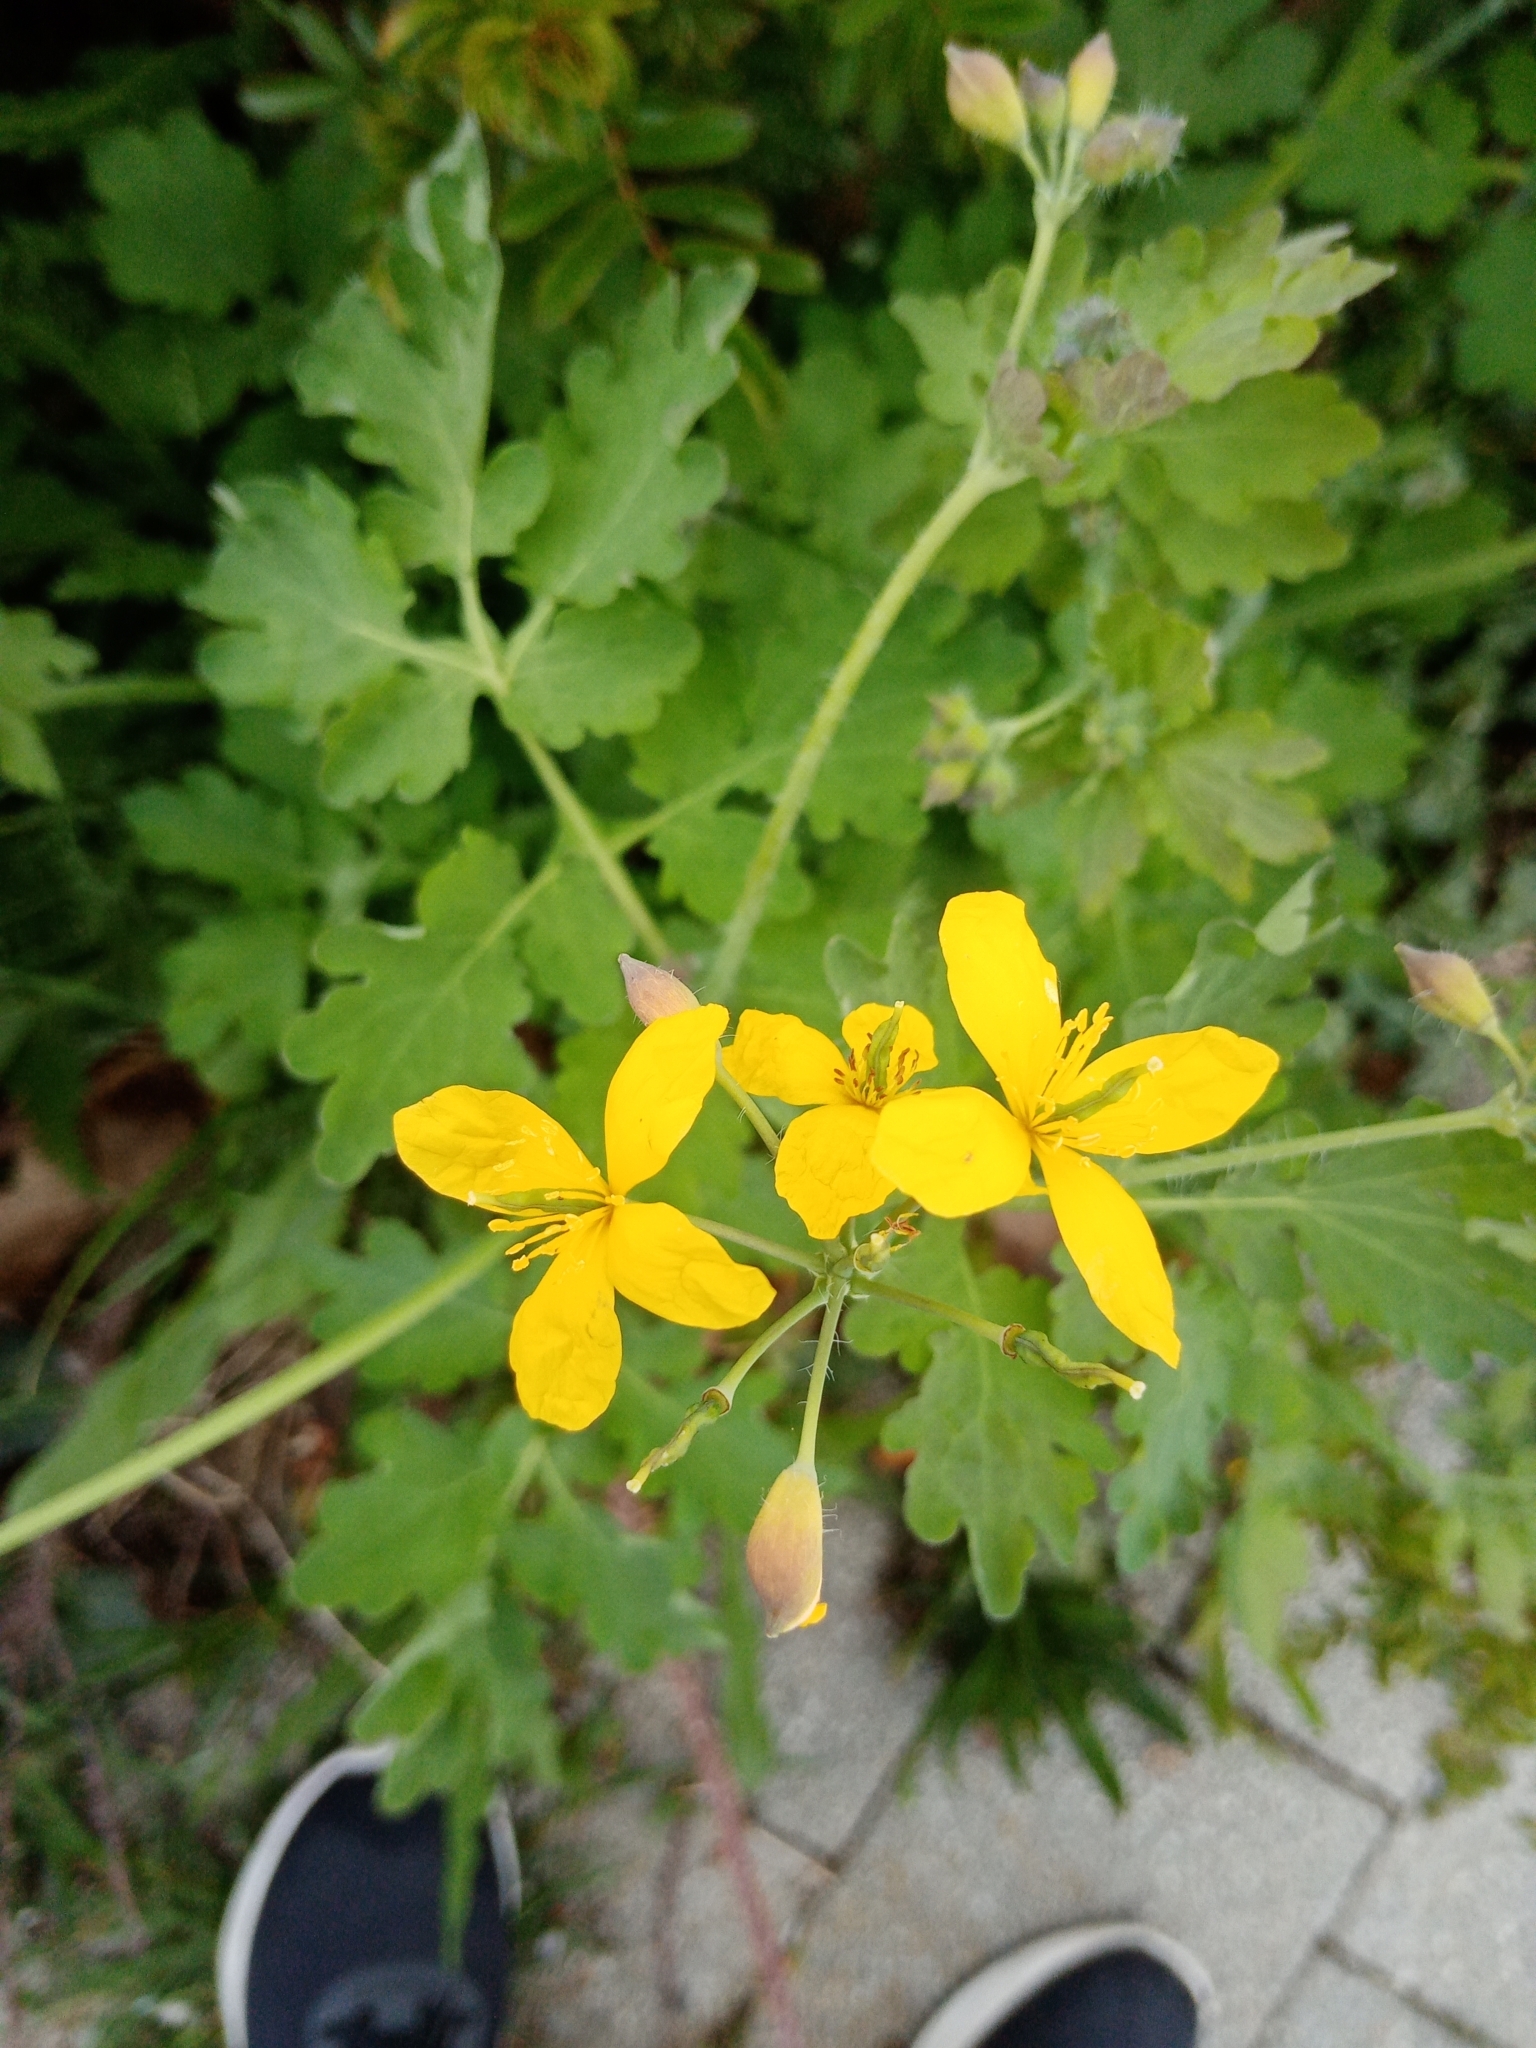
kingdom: Plantae
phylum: Tracheophyta
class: Magnoliopsida
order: Ranunculales
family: Papaveraceae
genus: Chelidonium
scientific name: Chelidonium majus
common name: Greater celandine
